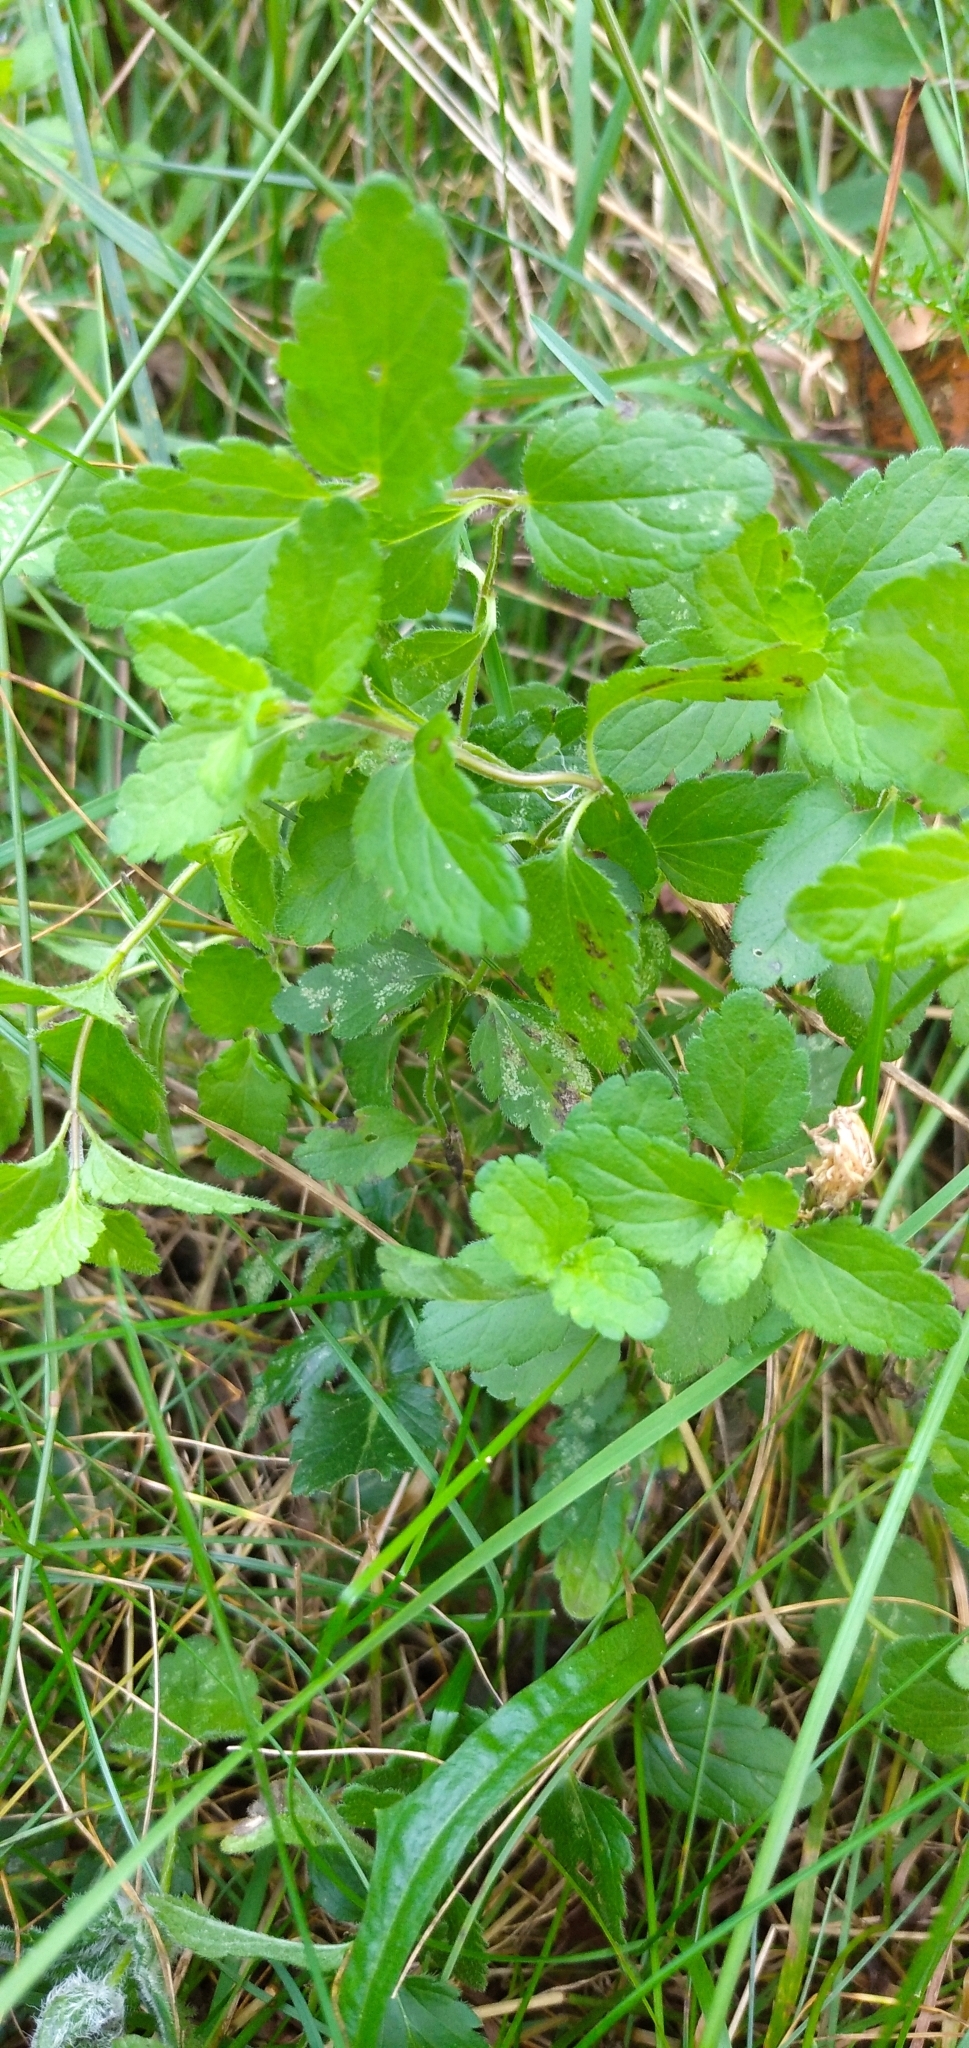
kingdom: Plantae
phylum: Tracheophyta
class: Magnoliopsida
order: Lamiales
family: Plantaginaceae
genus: Veronica
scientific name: Veronica chamaedrys
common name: Germander speedwell
